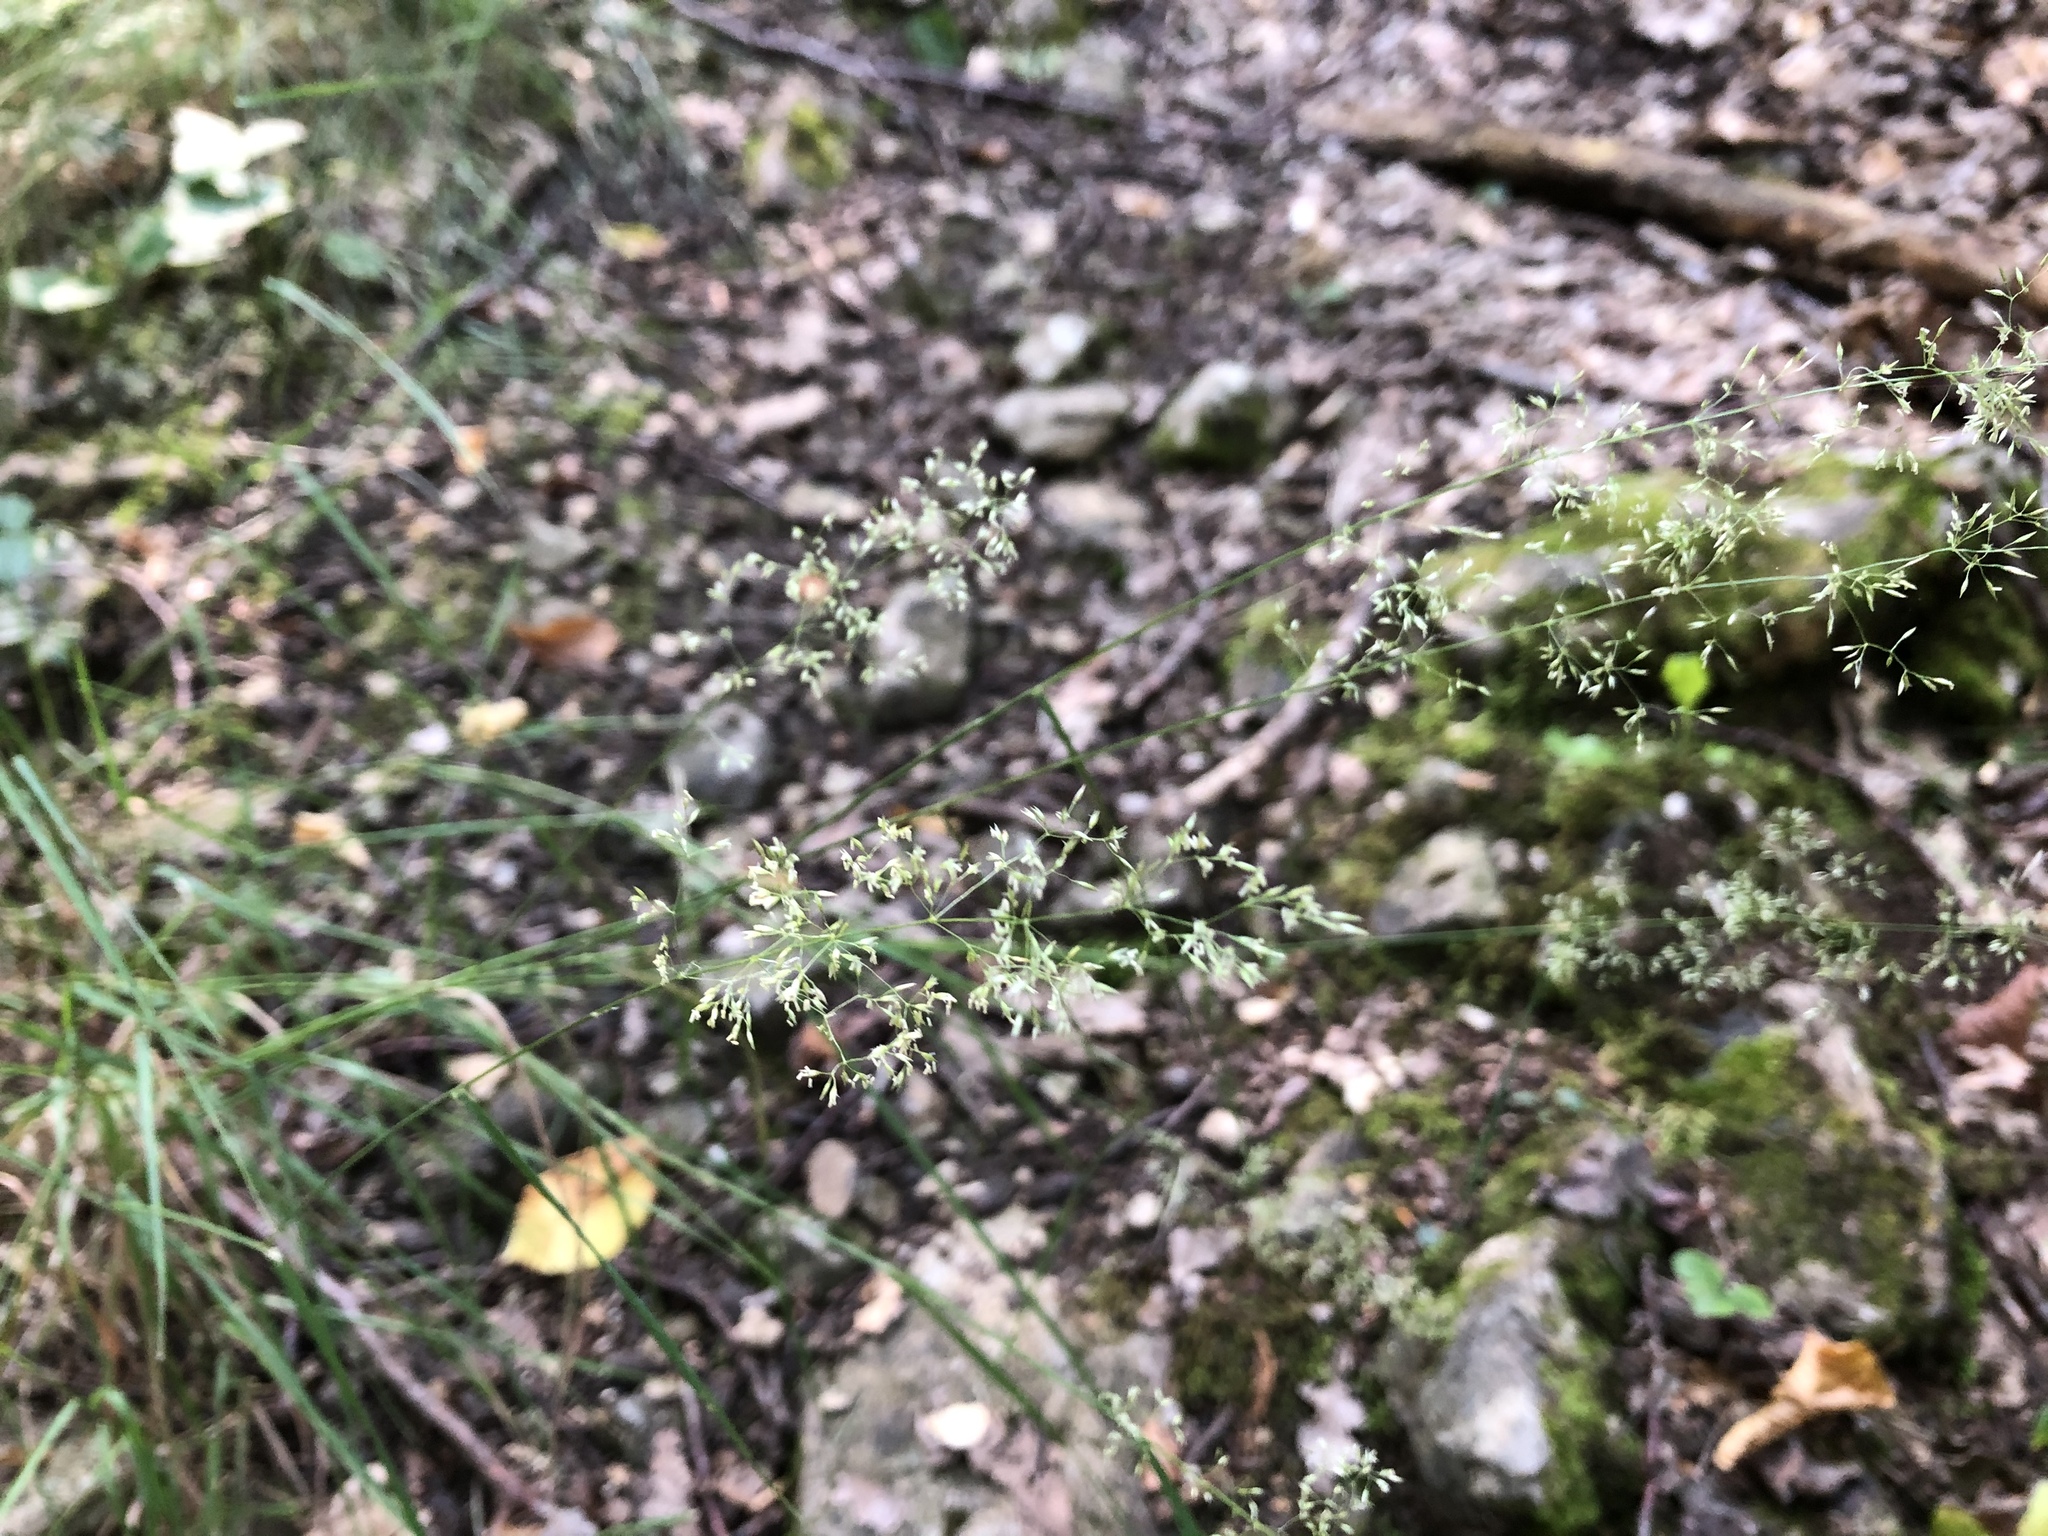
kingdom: Plantae
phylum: Tracheophyta
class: Liliopsida
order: Poales
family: Poaceae
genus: Agrostis
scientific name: Agrostis capillaris
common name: Colonial bentgrass
